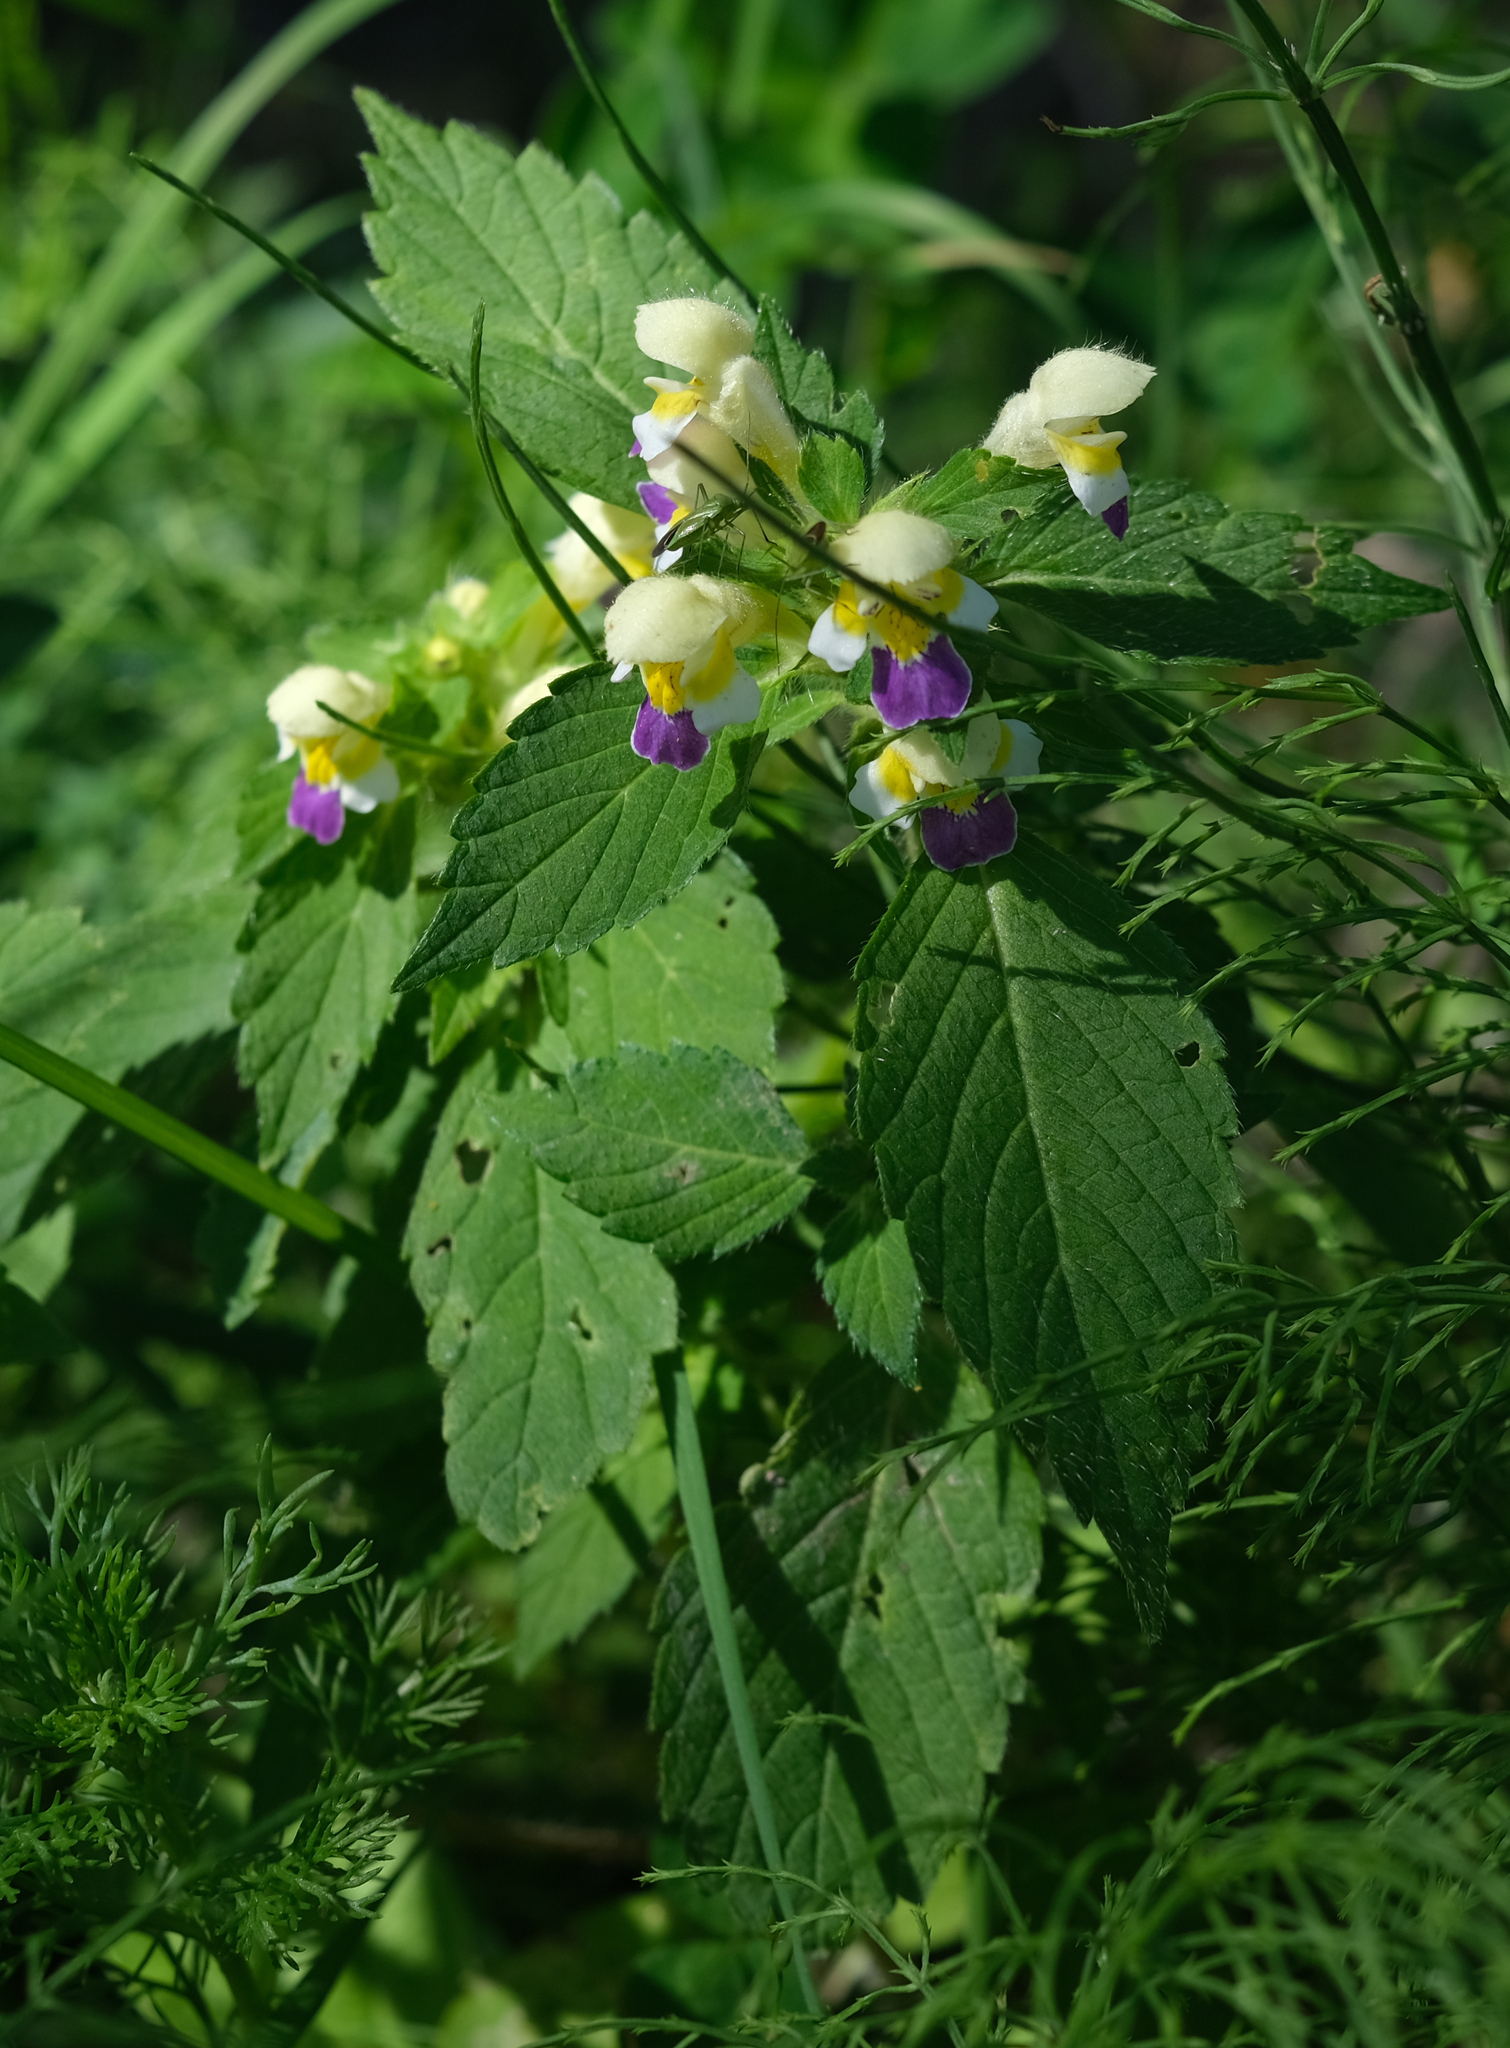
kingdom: Plantae
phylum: Tracheophyta
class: Magnoliopsida
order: Lamiales
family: Lamiaceae
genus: Galeopsis
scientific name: Galeopsis speciosa
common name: Large-flowered hemp-nettle
